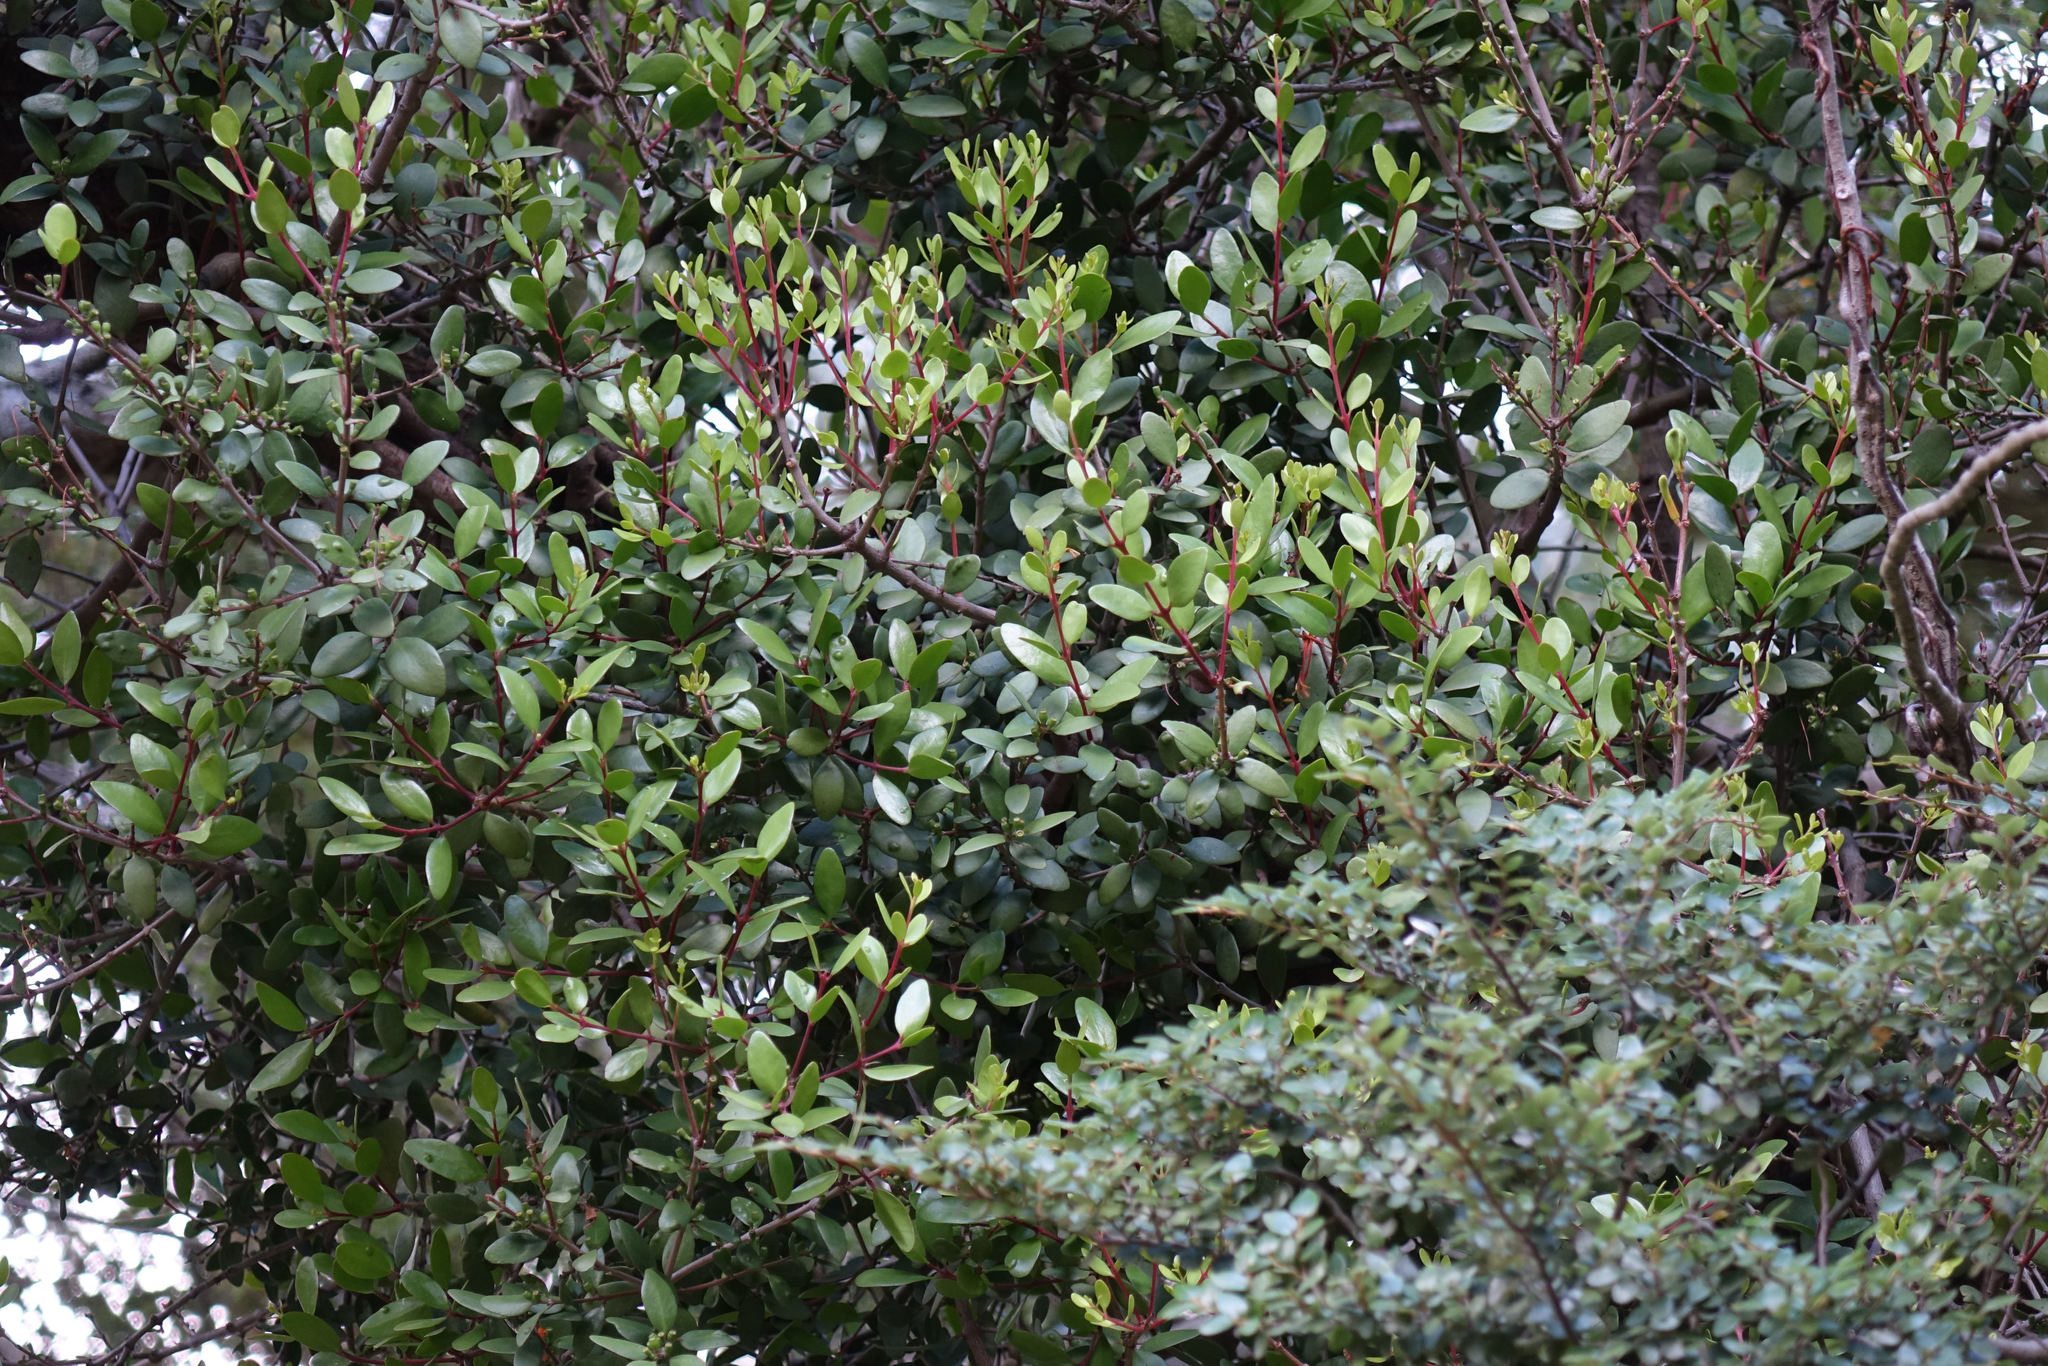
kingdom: Plantae
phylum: Tracheophyta
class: Magnoliopsida
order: Santalales
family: Loranthaceae
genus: Peraxilla
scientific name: Peraxilla tetrapetala
